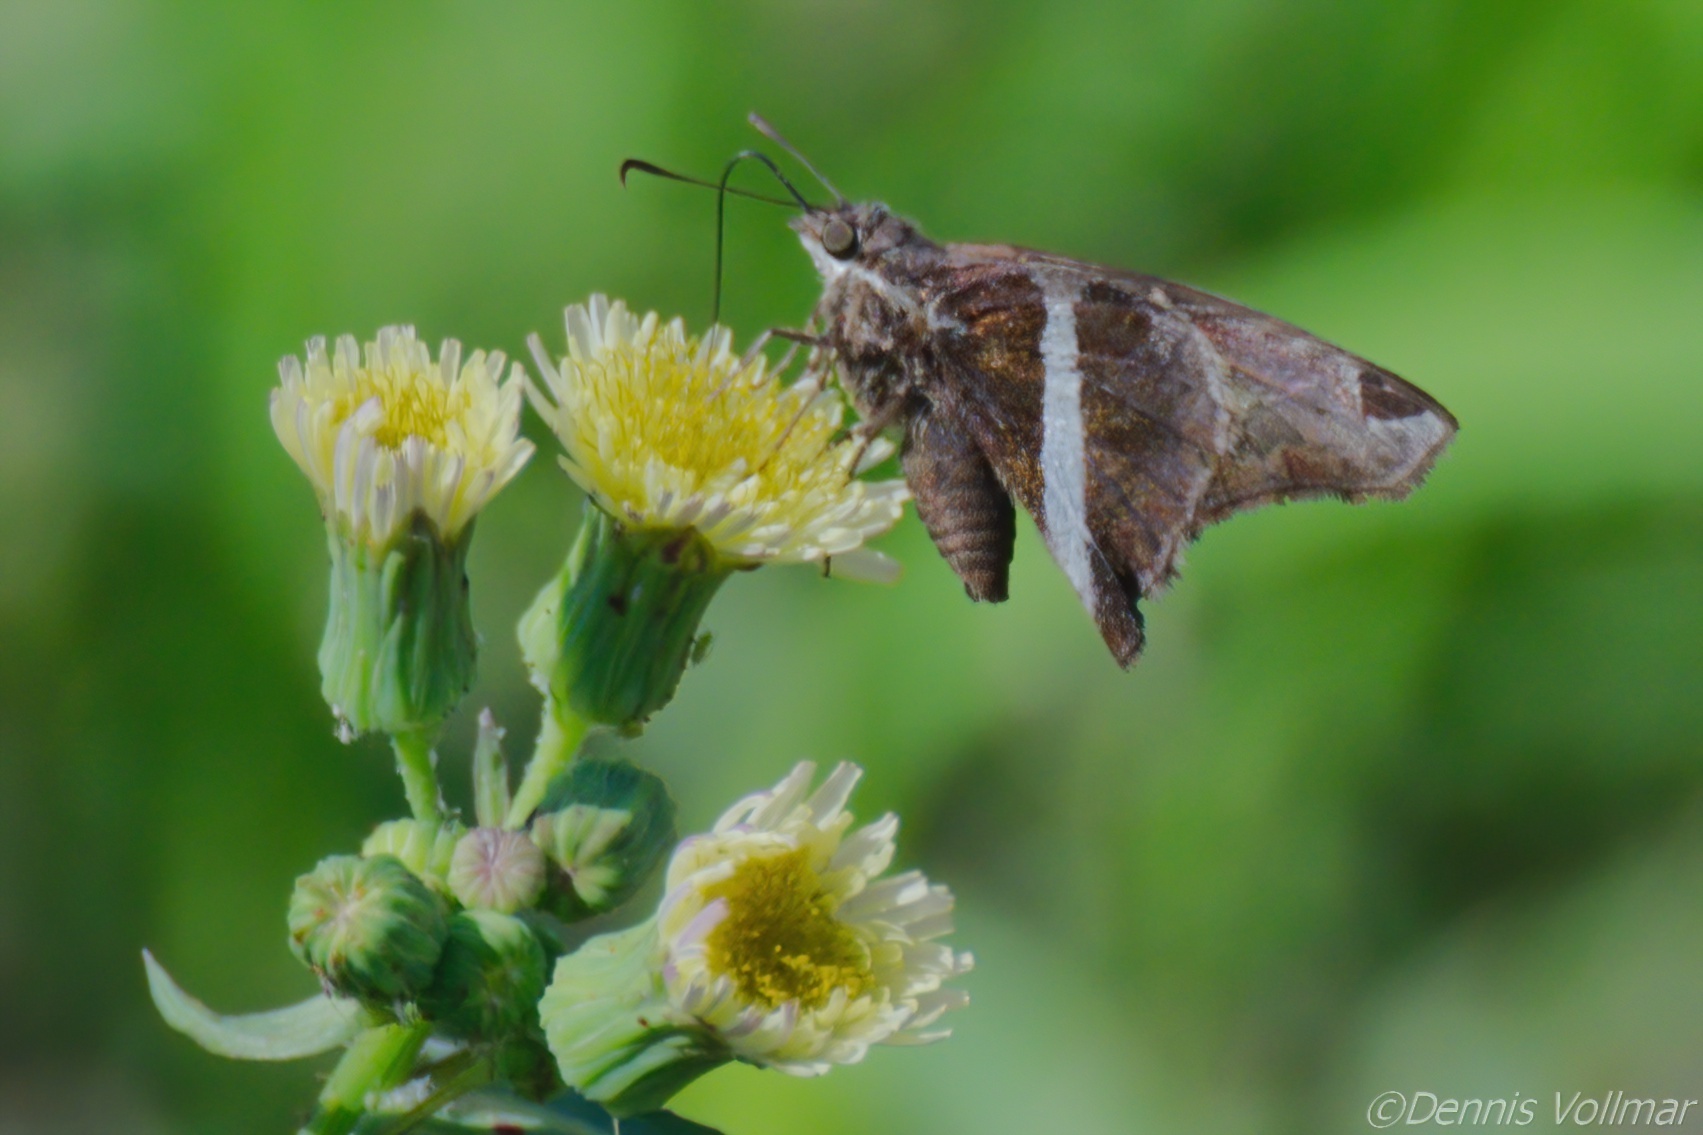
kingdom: Animalia
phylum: Arthropoda
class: Insecta
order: Lepidoptera
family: Hesperiidae
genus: Chioides
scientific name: Chioides catillus
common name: Silverbanded skipper
